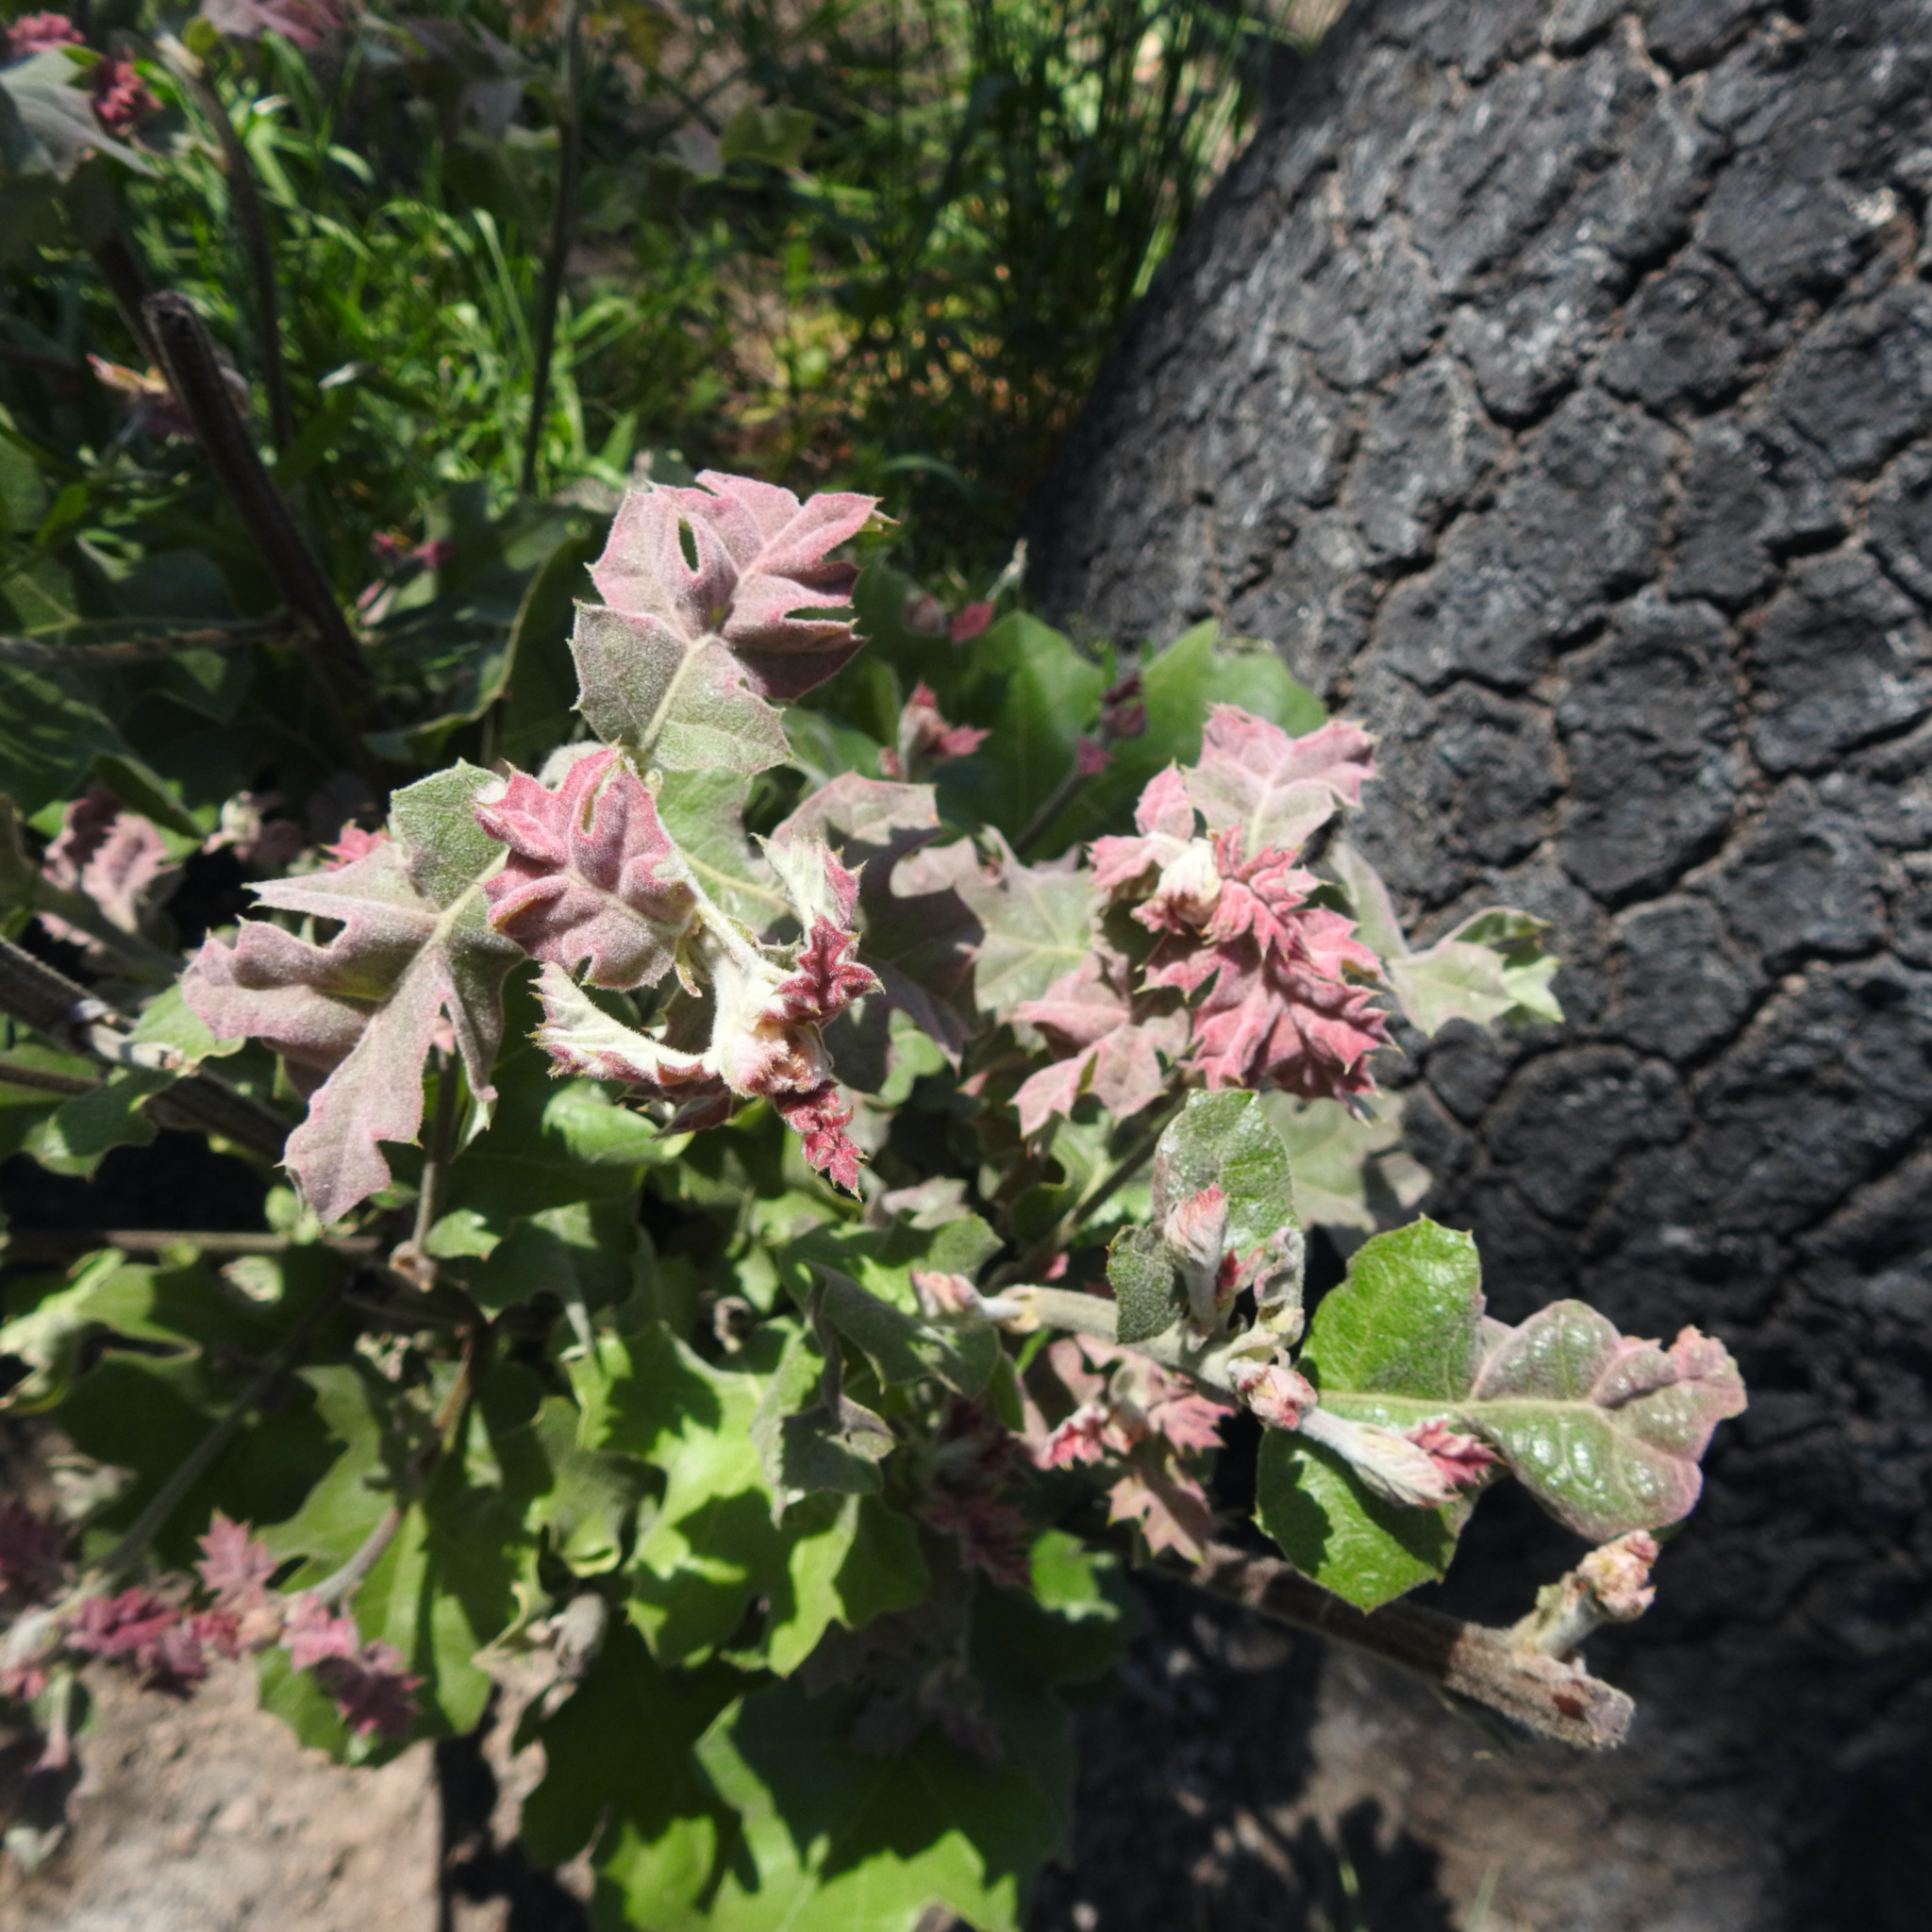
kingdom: Plantae
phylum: Tracheophyta
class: Magnoliopsida
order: Fagales
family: Fagaceae
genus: Quercus
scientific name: Quercus kelloggii
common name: California black oak
